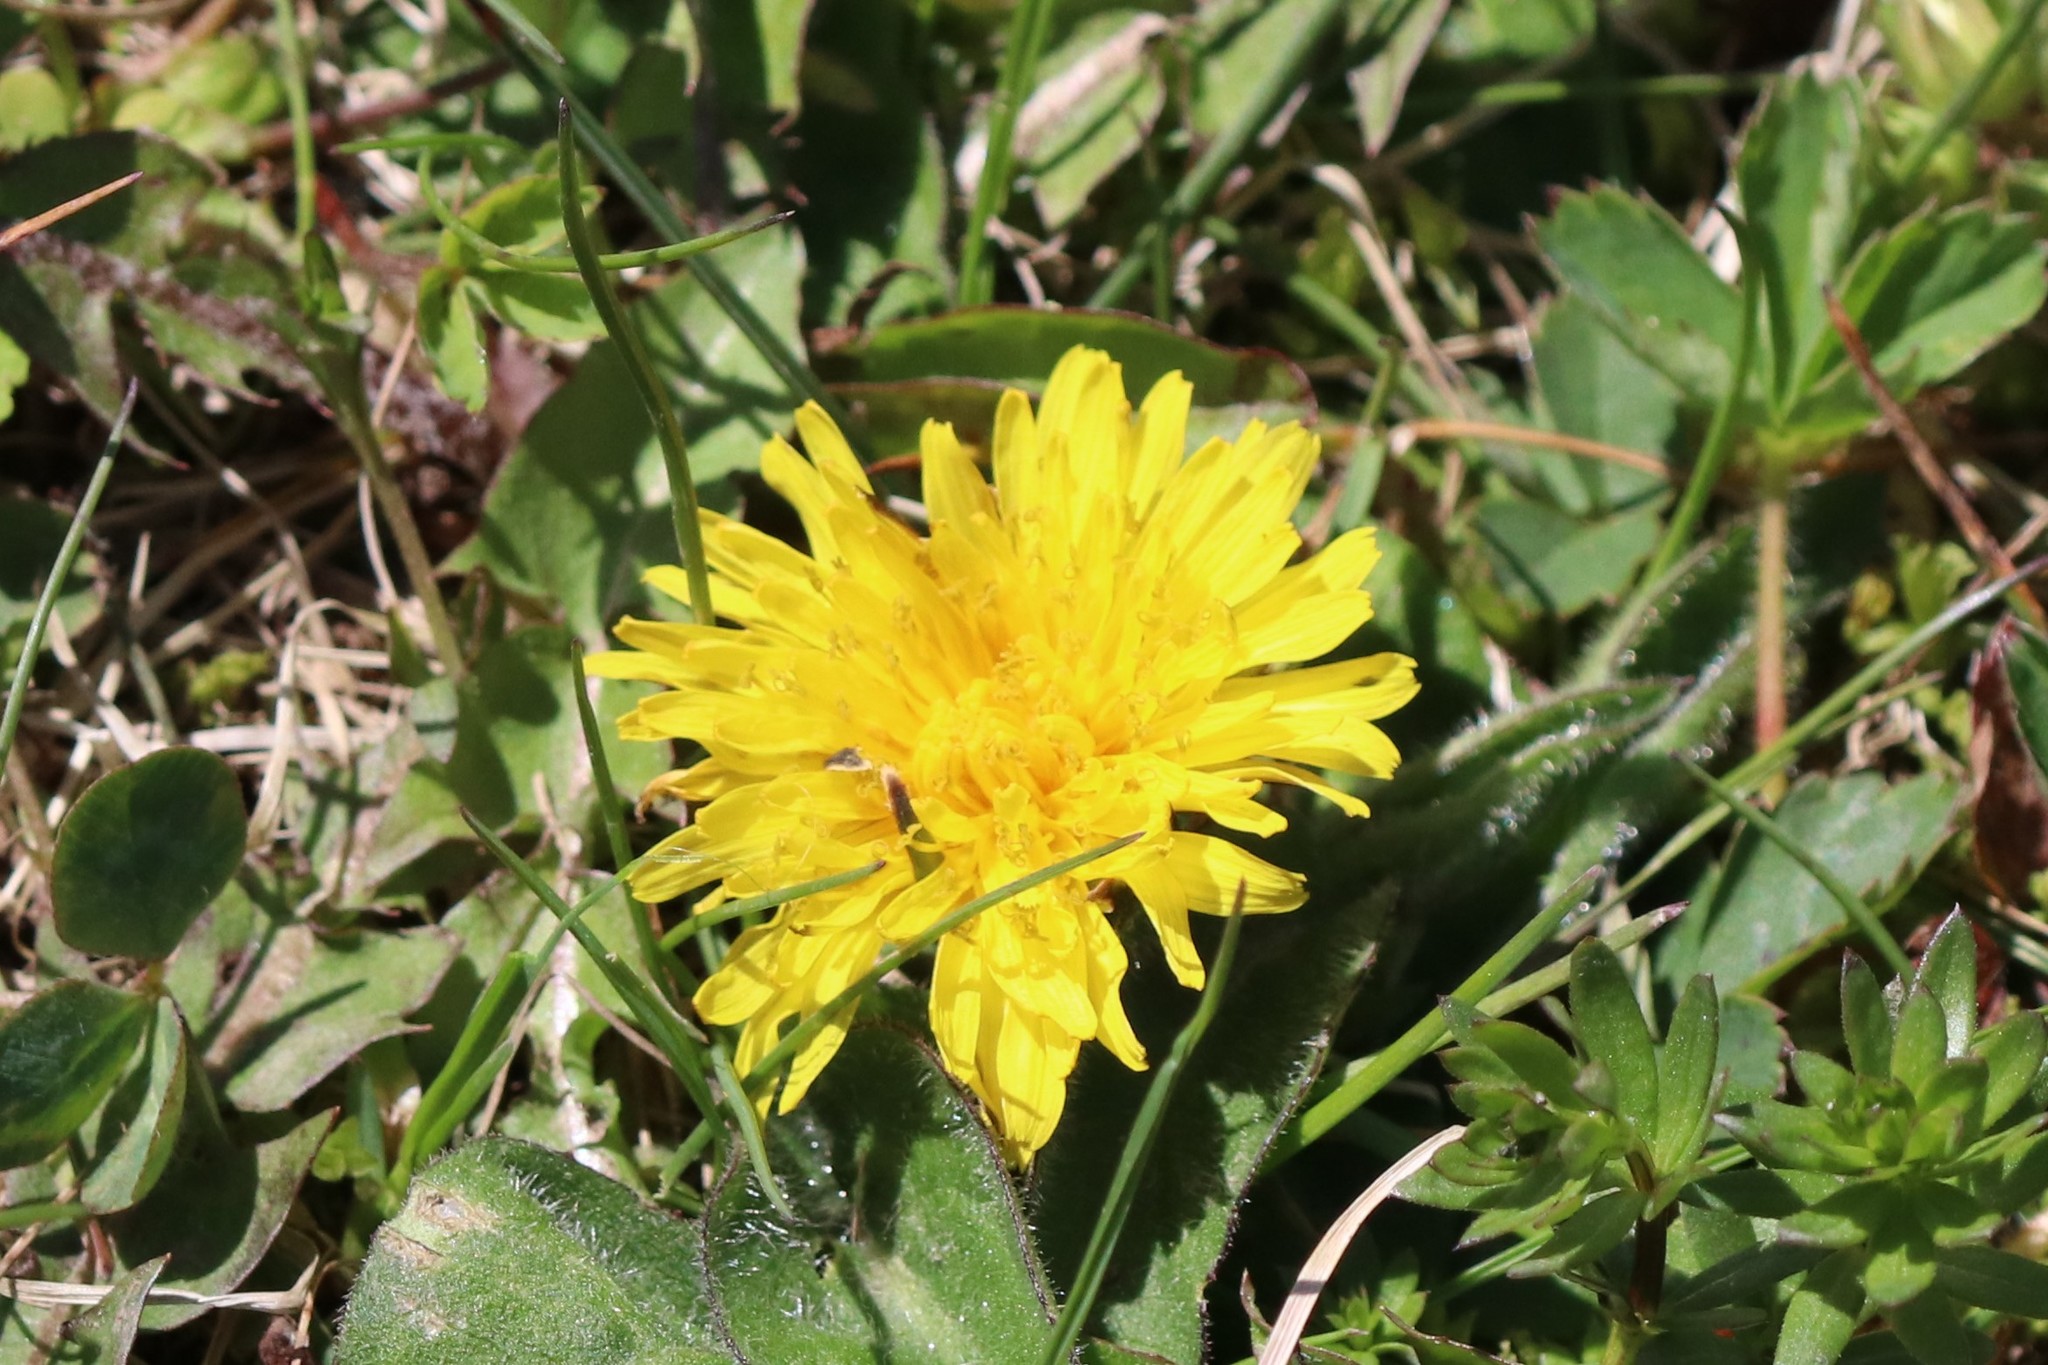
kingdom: Plantae
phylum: Tracheophyta
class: Magnoliopsida
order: Asterales
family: Asteraceae
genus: Taraxacum
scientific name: Taraxacum officinale
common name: Common dandelion
